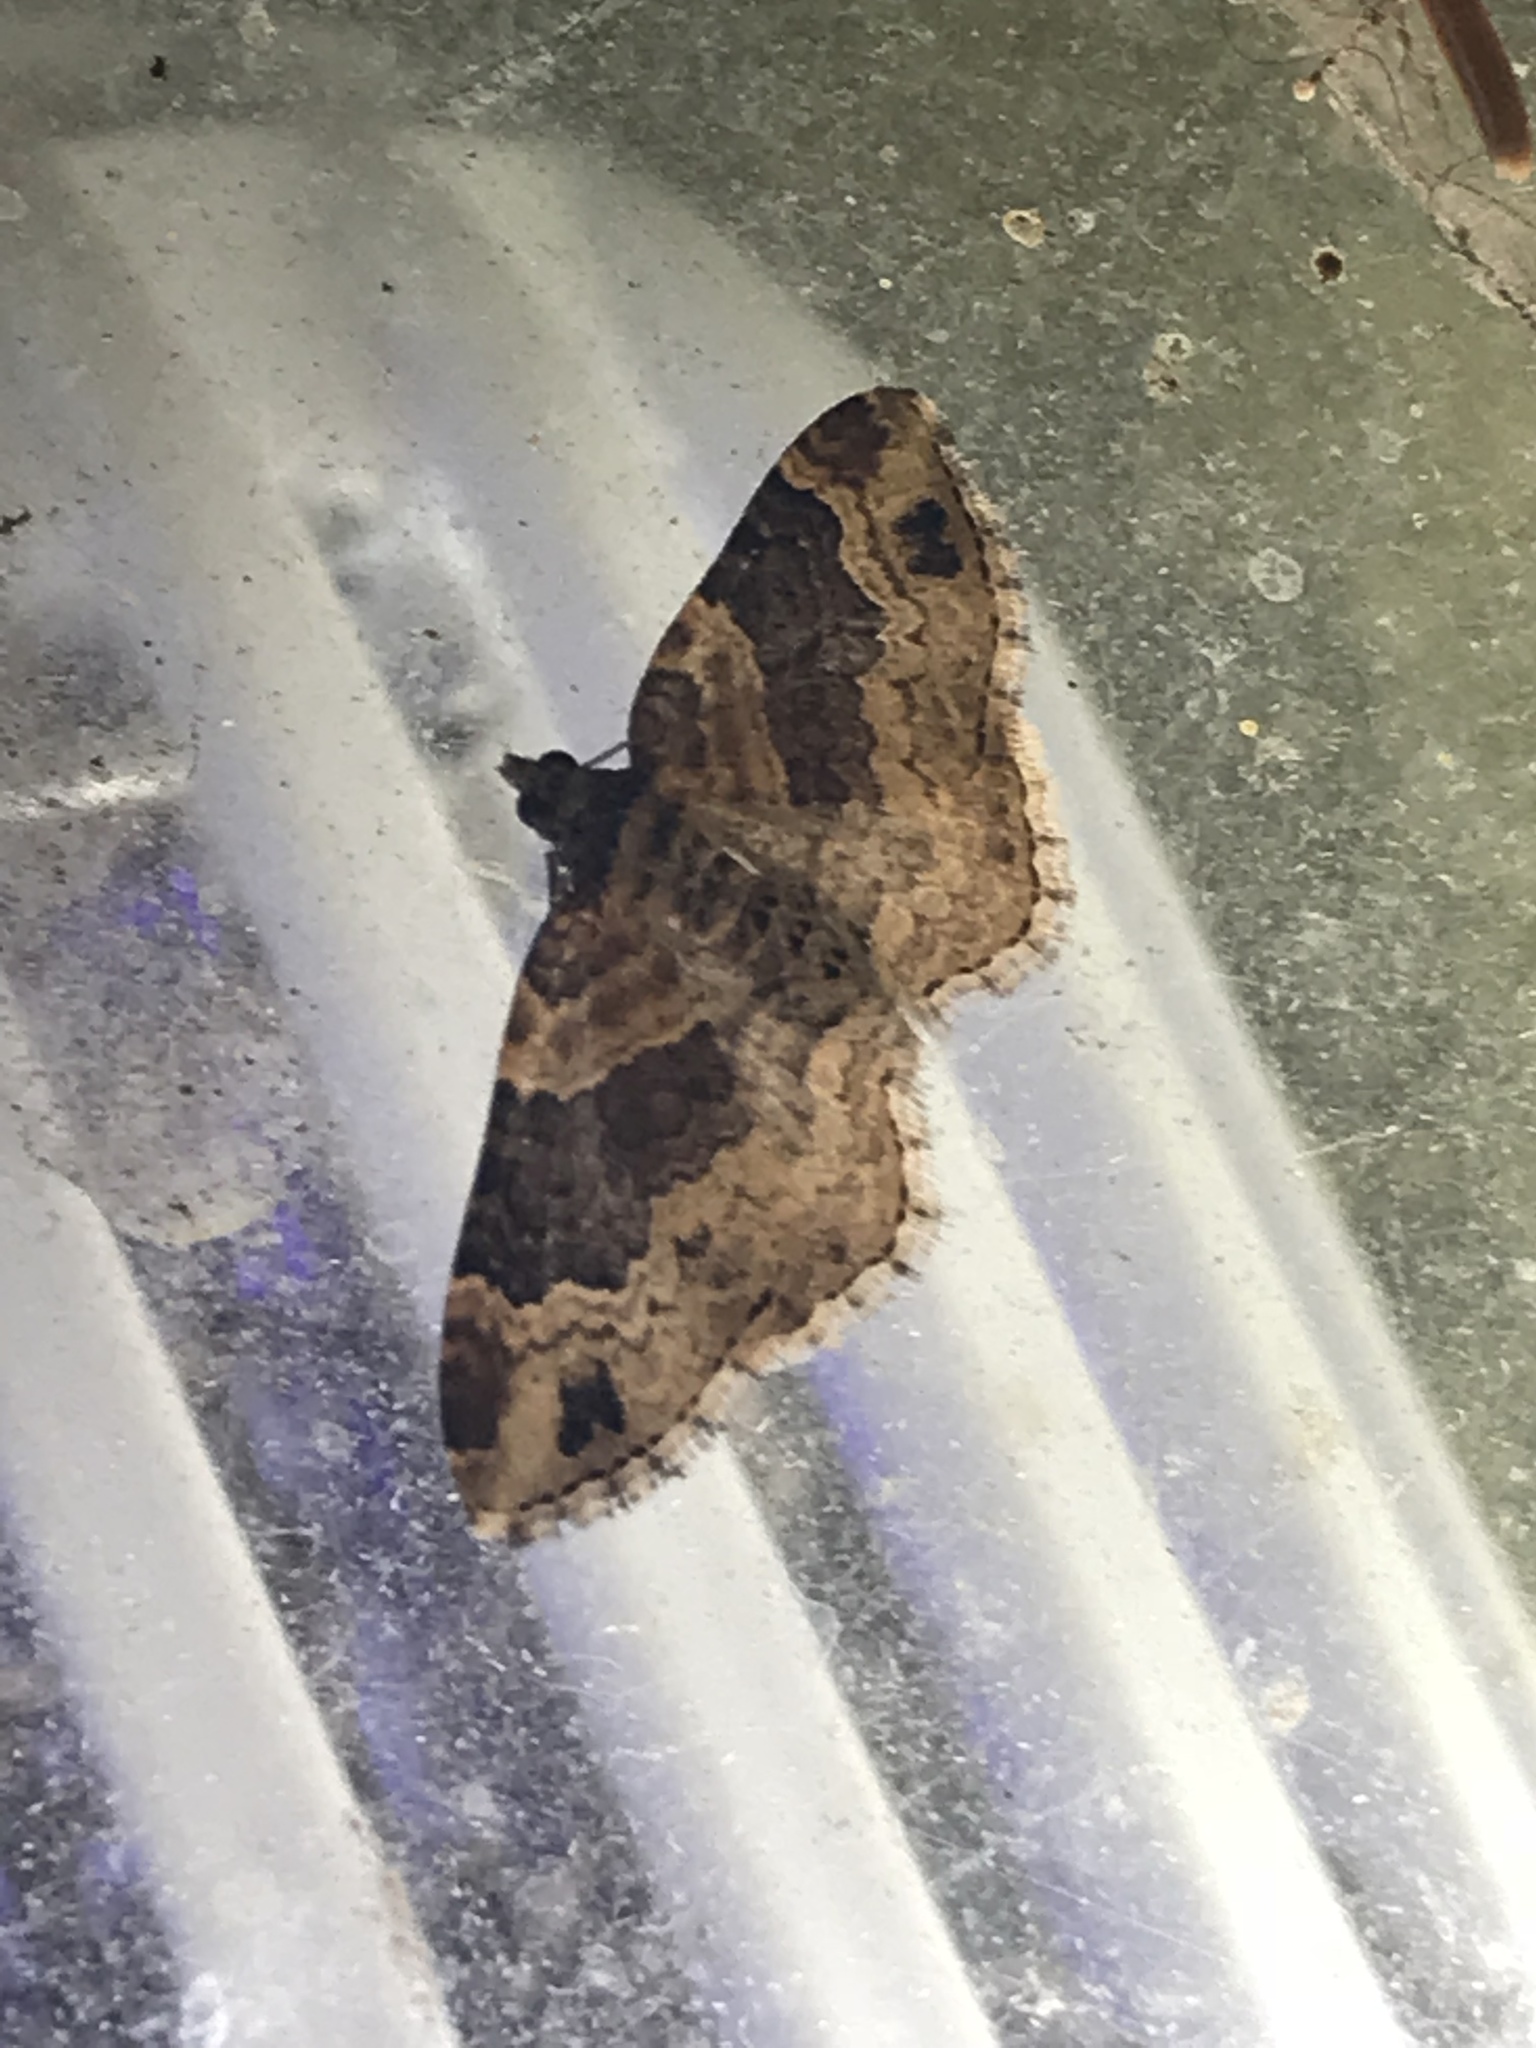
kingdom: Animalia
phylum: Arthropoda
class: Insecta
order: Lepidoptera
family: Geometridae
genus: Xanthorhoe
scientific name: Xanthorhoe ferrugata
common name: Dark-barred twin-spot carpet
